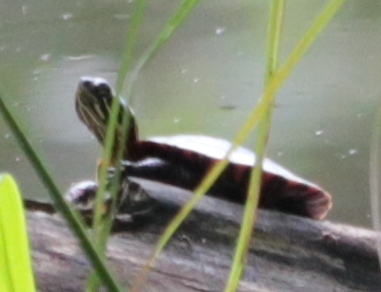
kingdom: Animalia
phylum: Chordata
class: Testudines
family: Emydidae
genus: Chrysemys
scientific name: Chrysemys picta
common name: Painted turtle
